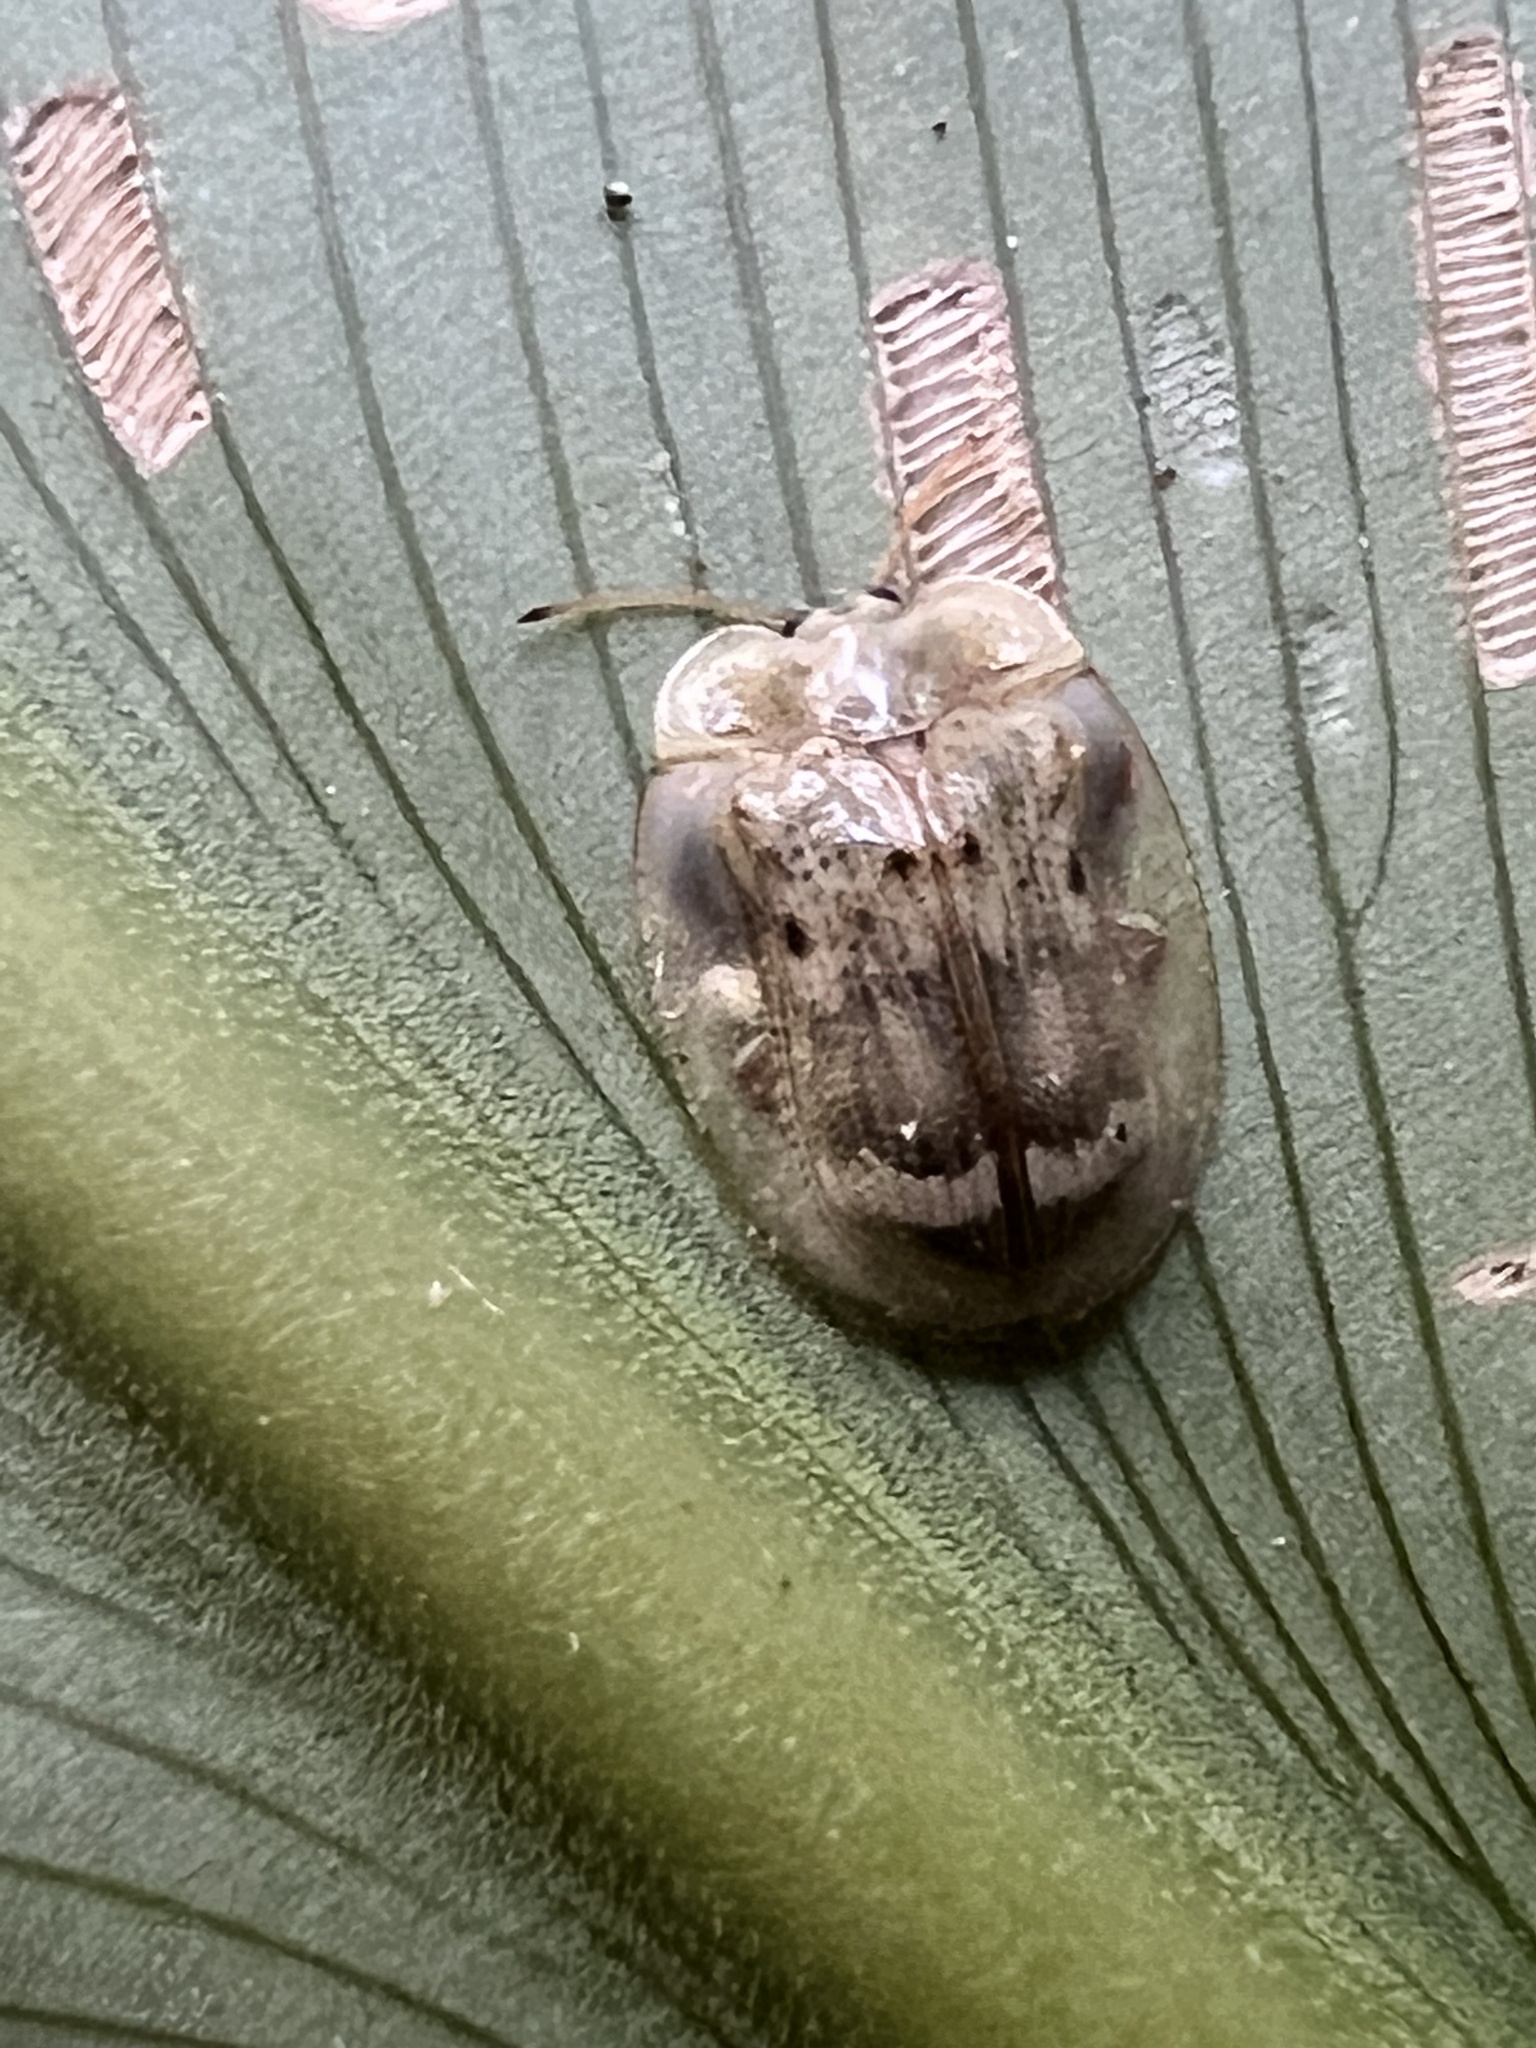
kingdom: Animalia
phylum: Arthropoda
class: Insecta
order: Coleoptera
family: Chrysomelidae
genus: Aslamidium
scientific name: Aslamidium impurum
